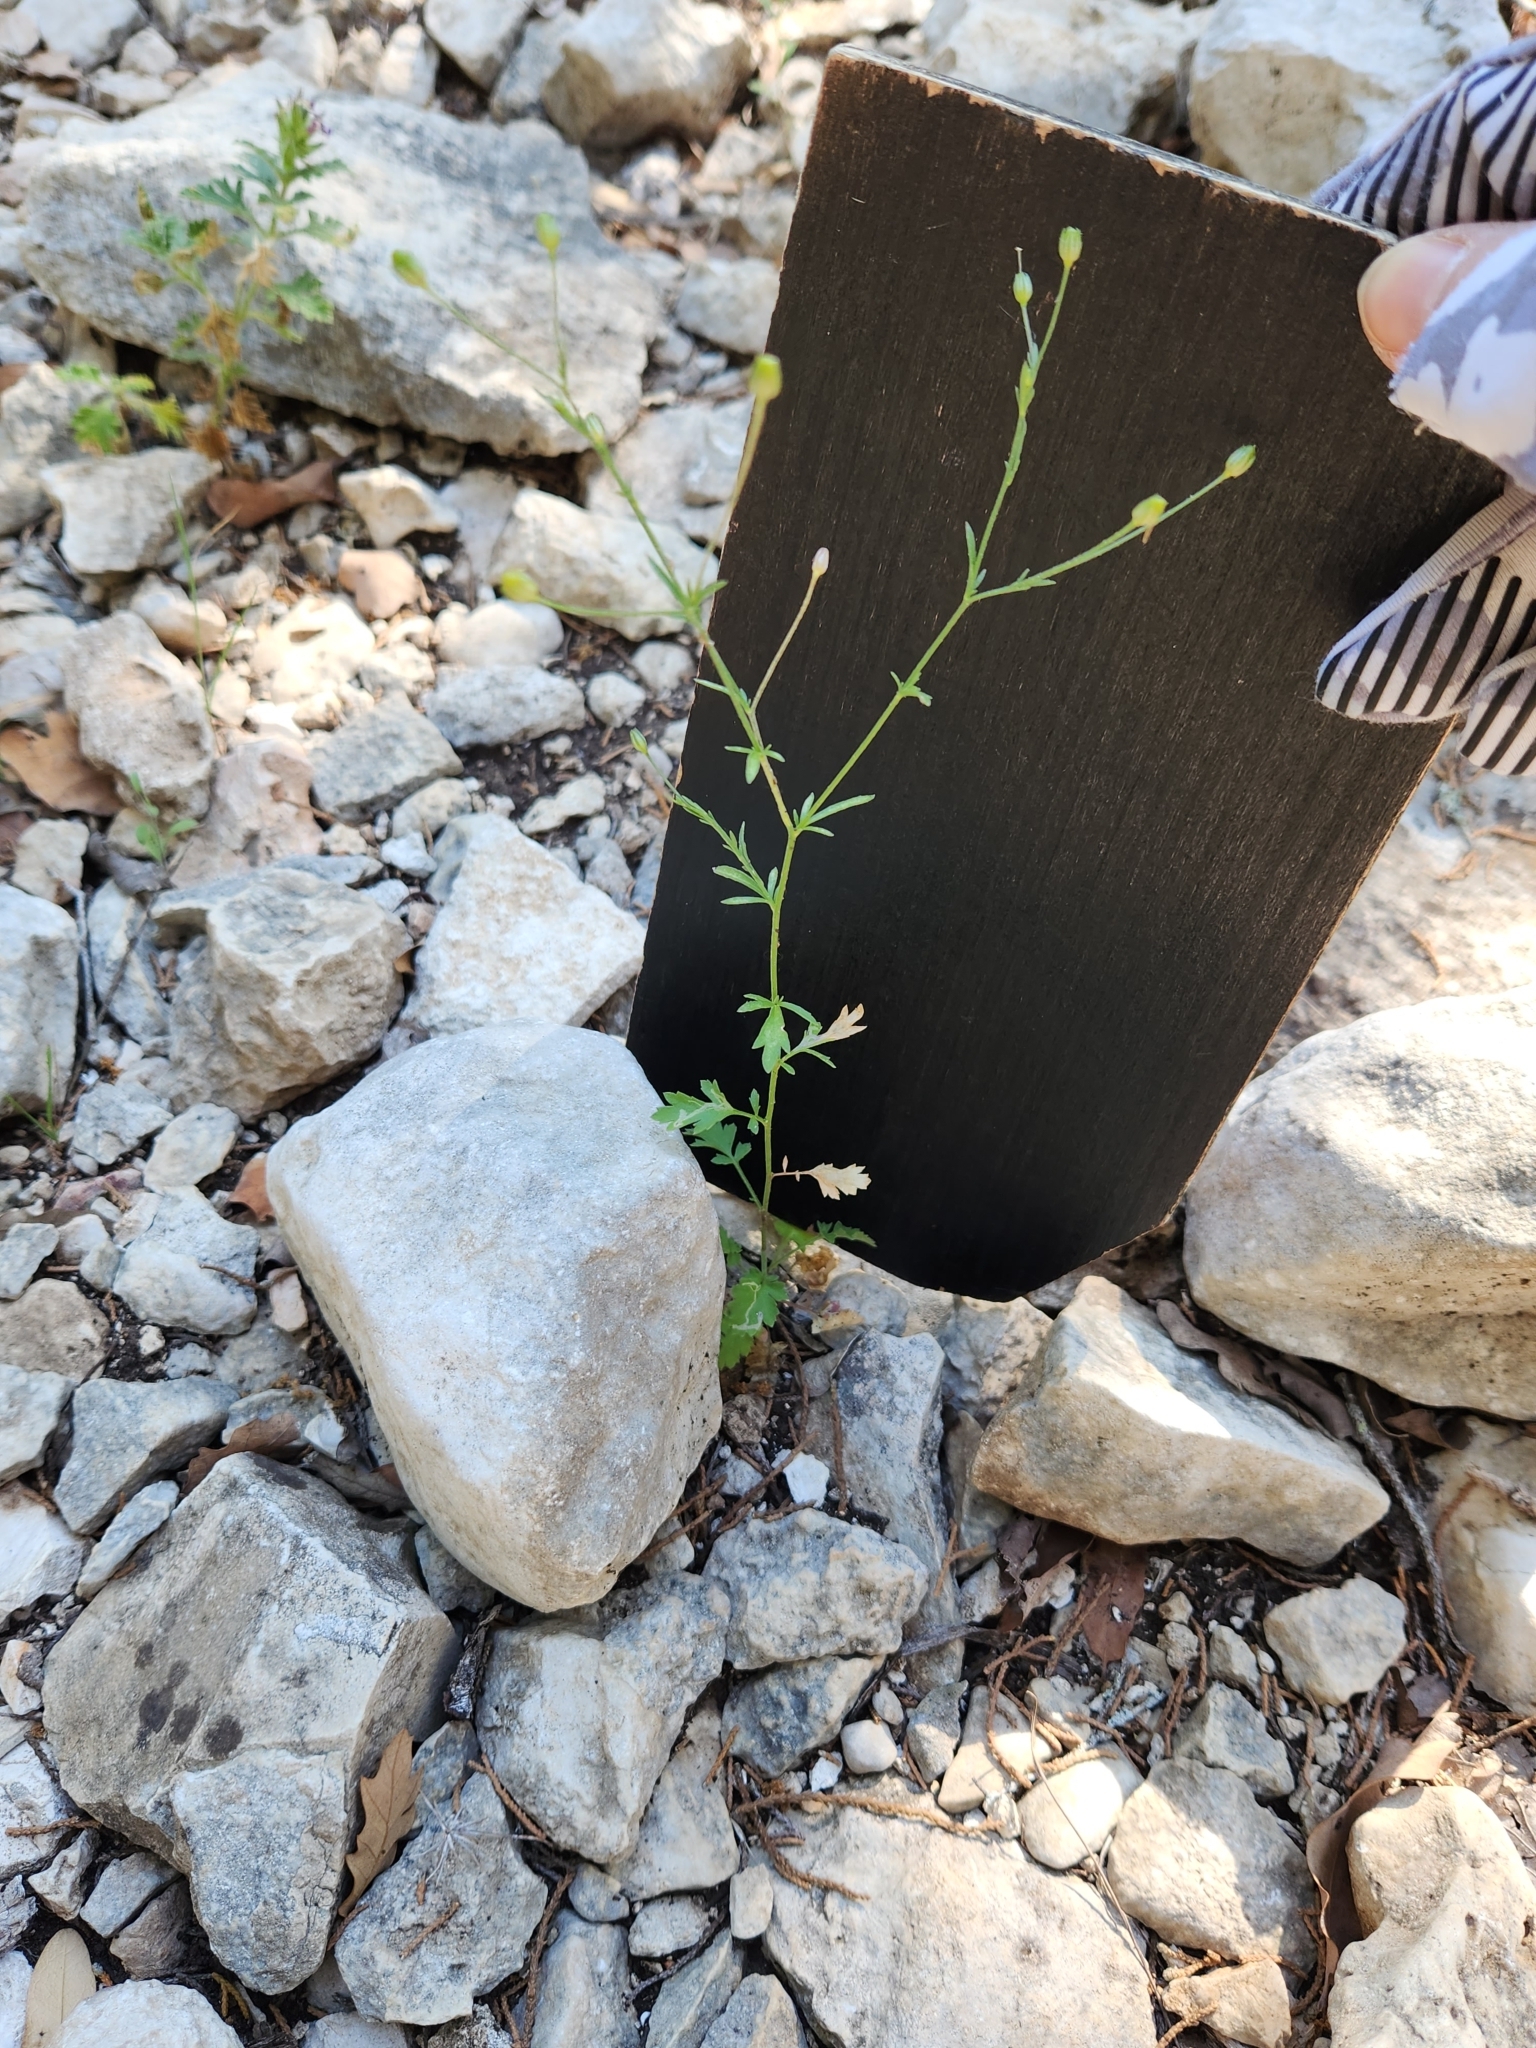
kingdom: Plantae
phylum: Tracheophyta
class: Magnoliopsida
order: Ericales
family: Polemoniaceae
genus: Giliastrum
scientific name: Giliastrum incisum
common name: Splitleaf gilia
